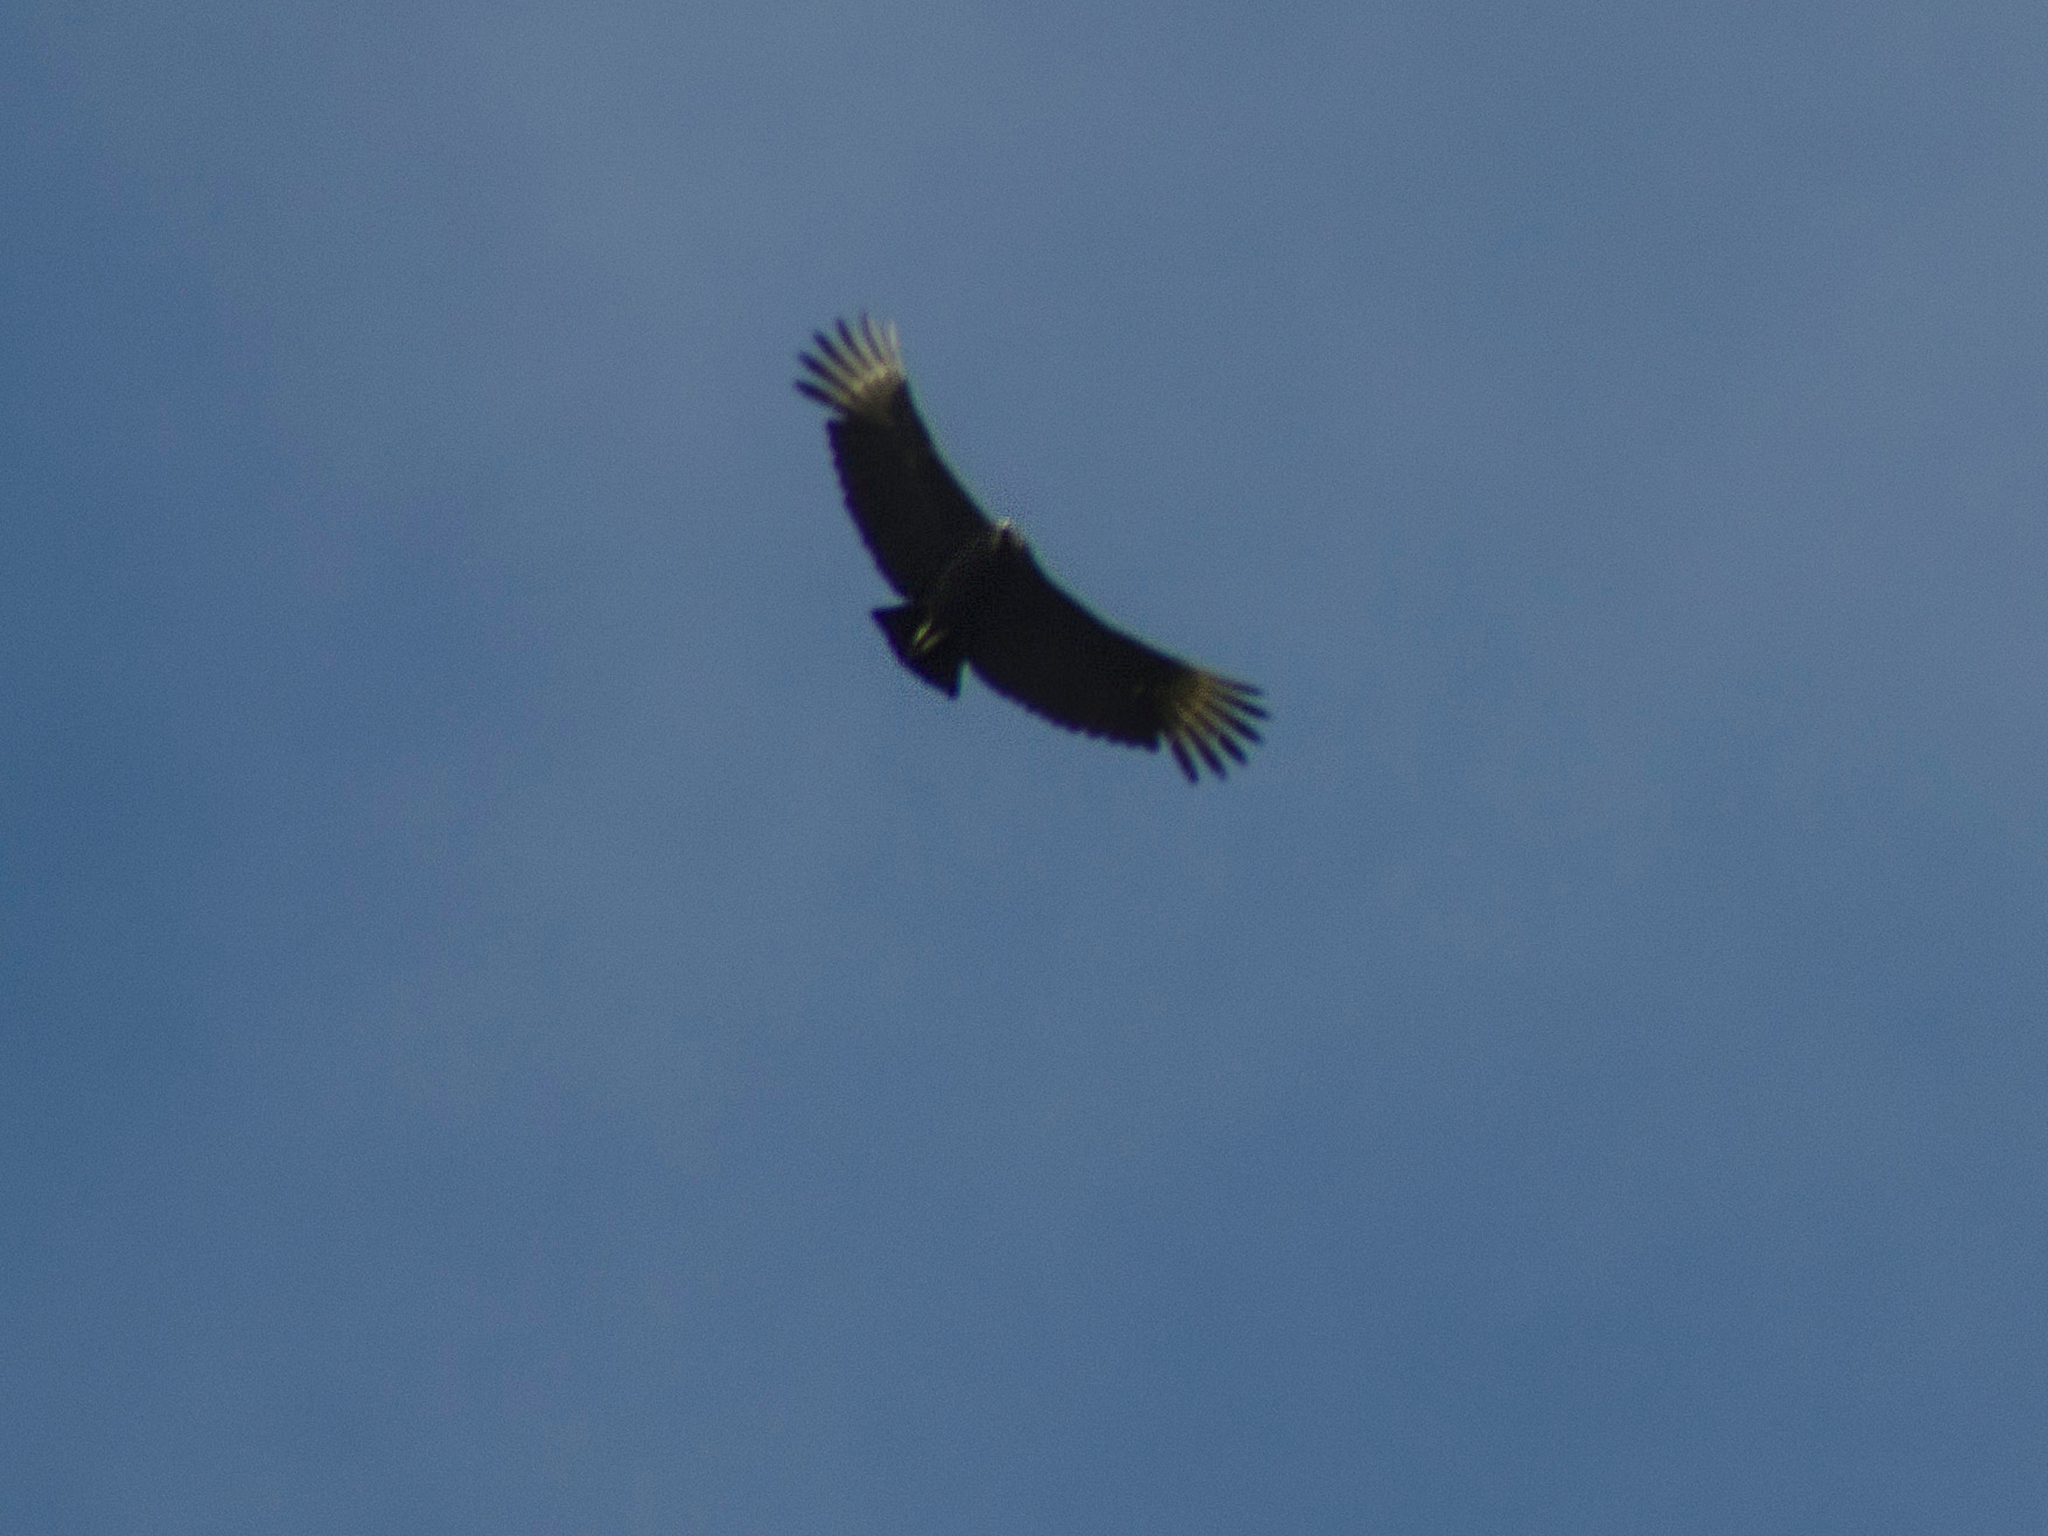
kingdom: Animalia
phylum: Chordata
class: Aves
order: Accipitriformes
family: Cathartidae
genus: Coragyps
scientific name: Coragyps atratus
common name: Black vulture
